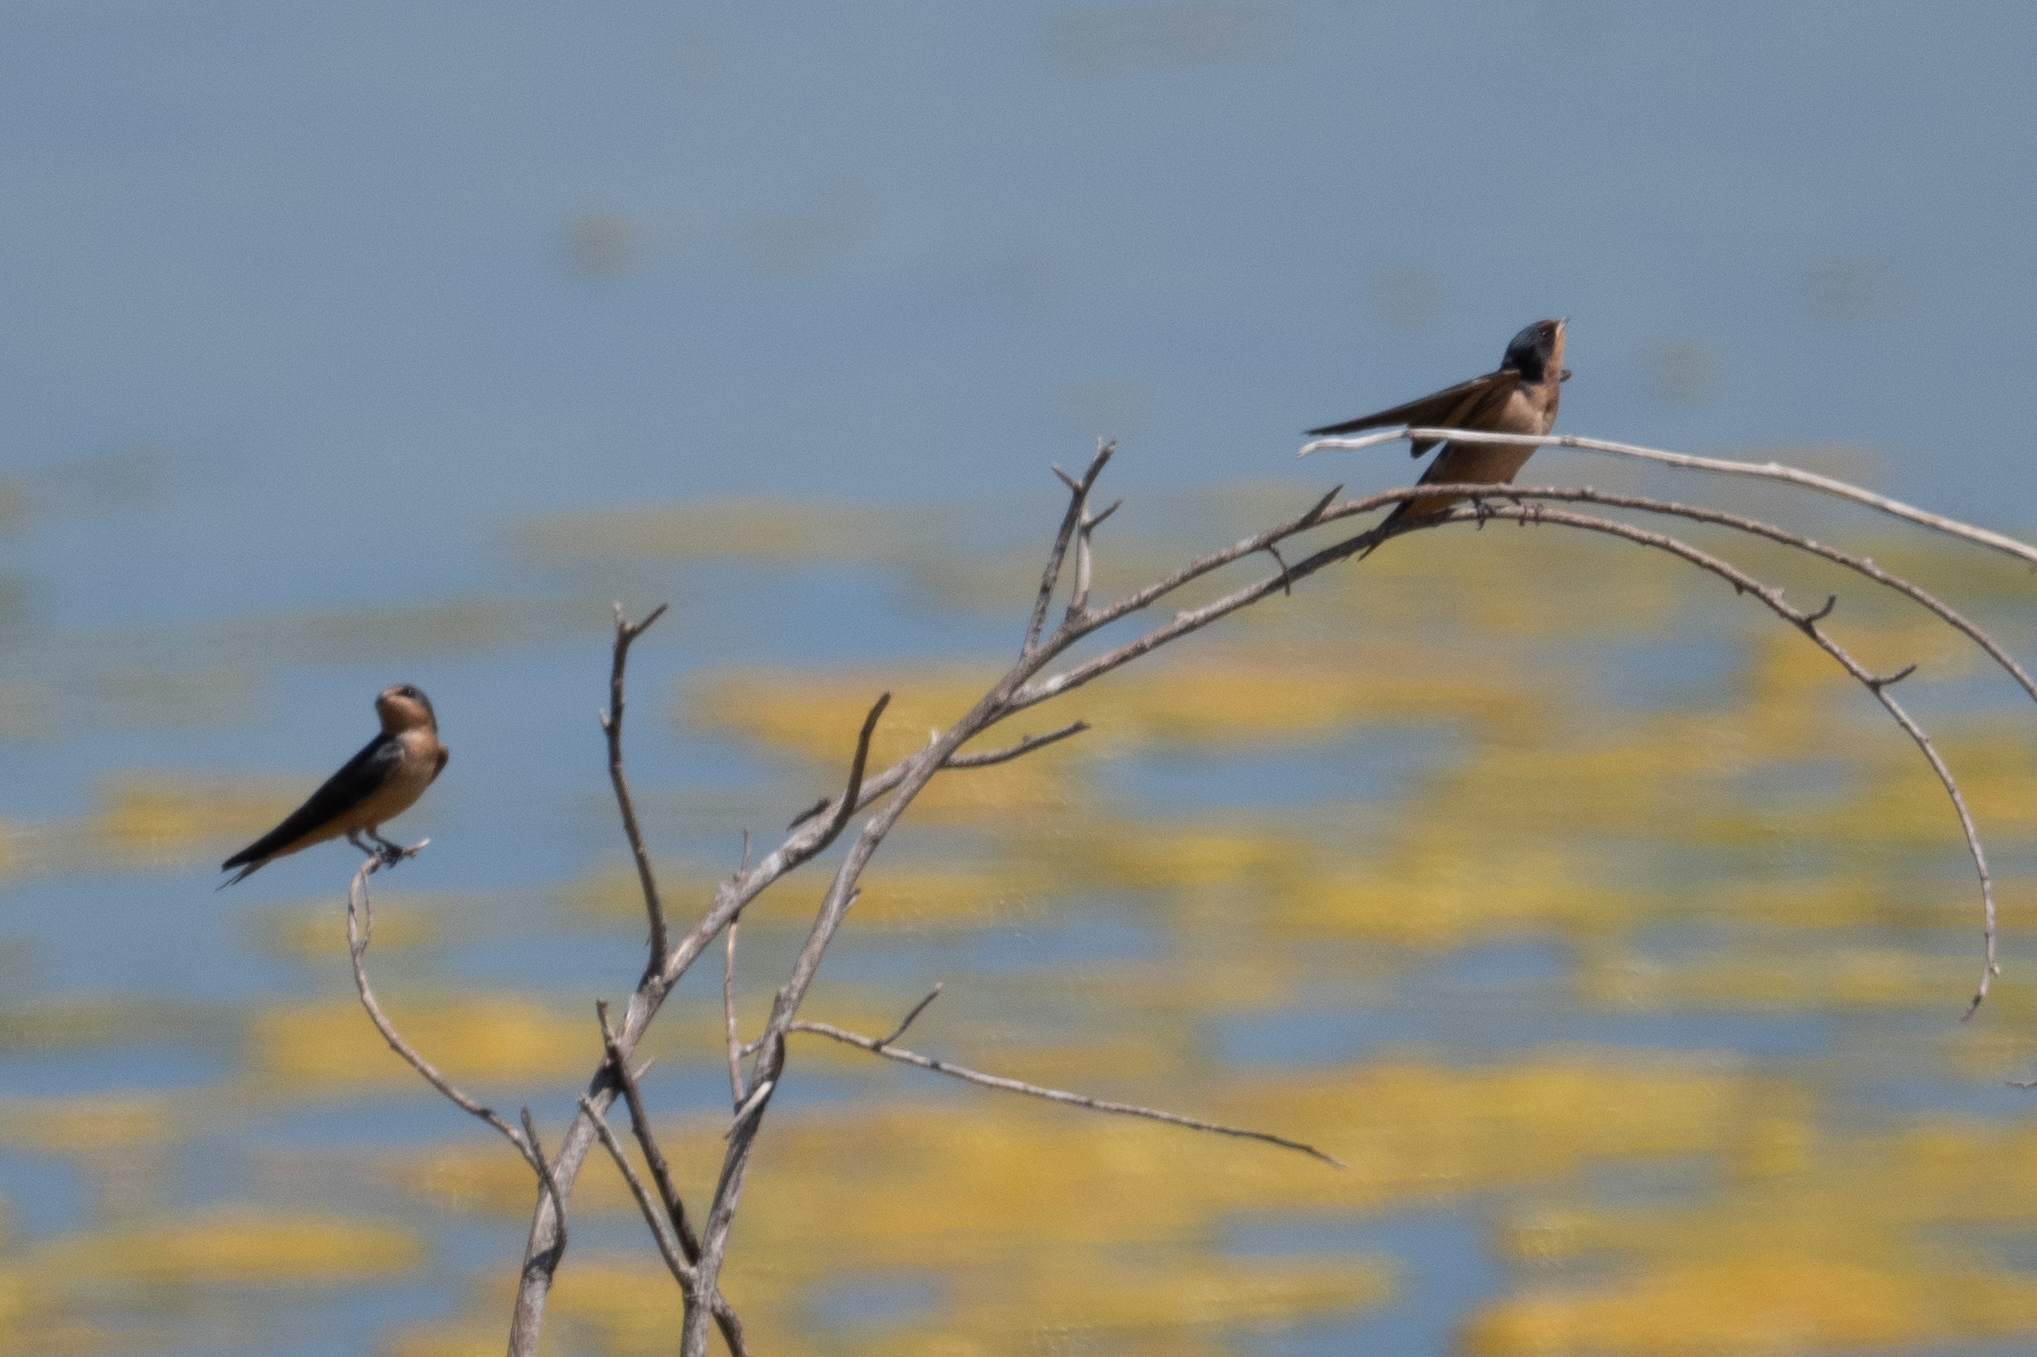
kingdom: Animalia
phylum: Chordata
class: Aves
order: Passeriformes
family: Hirundinidae
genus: Hirundo
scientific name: Hirundo rustica
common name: Barn swallow
